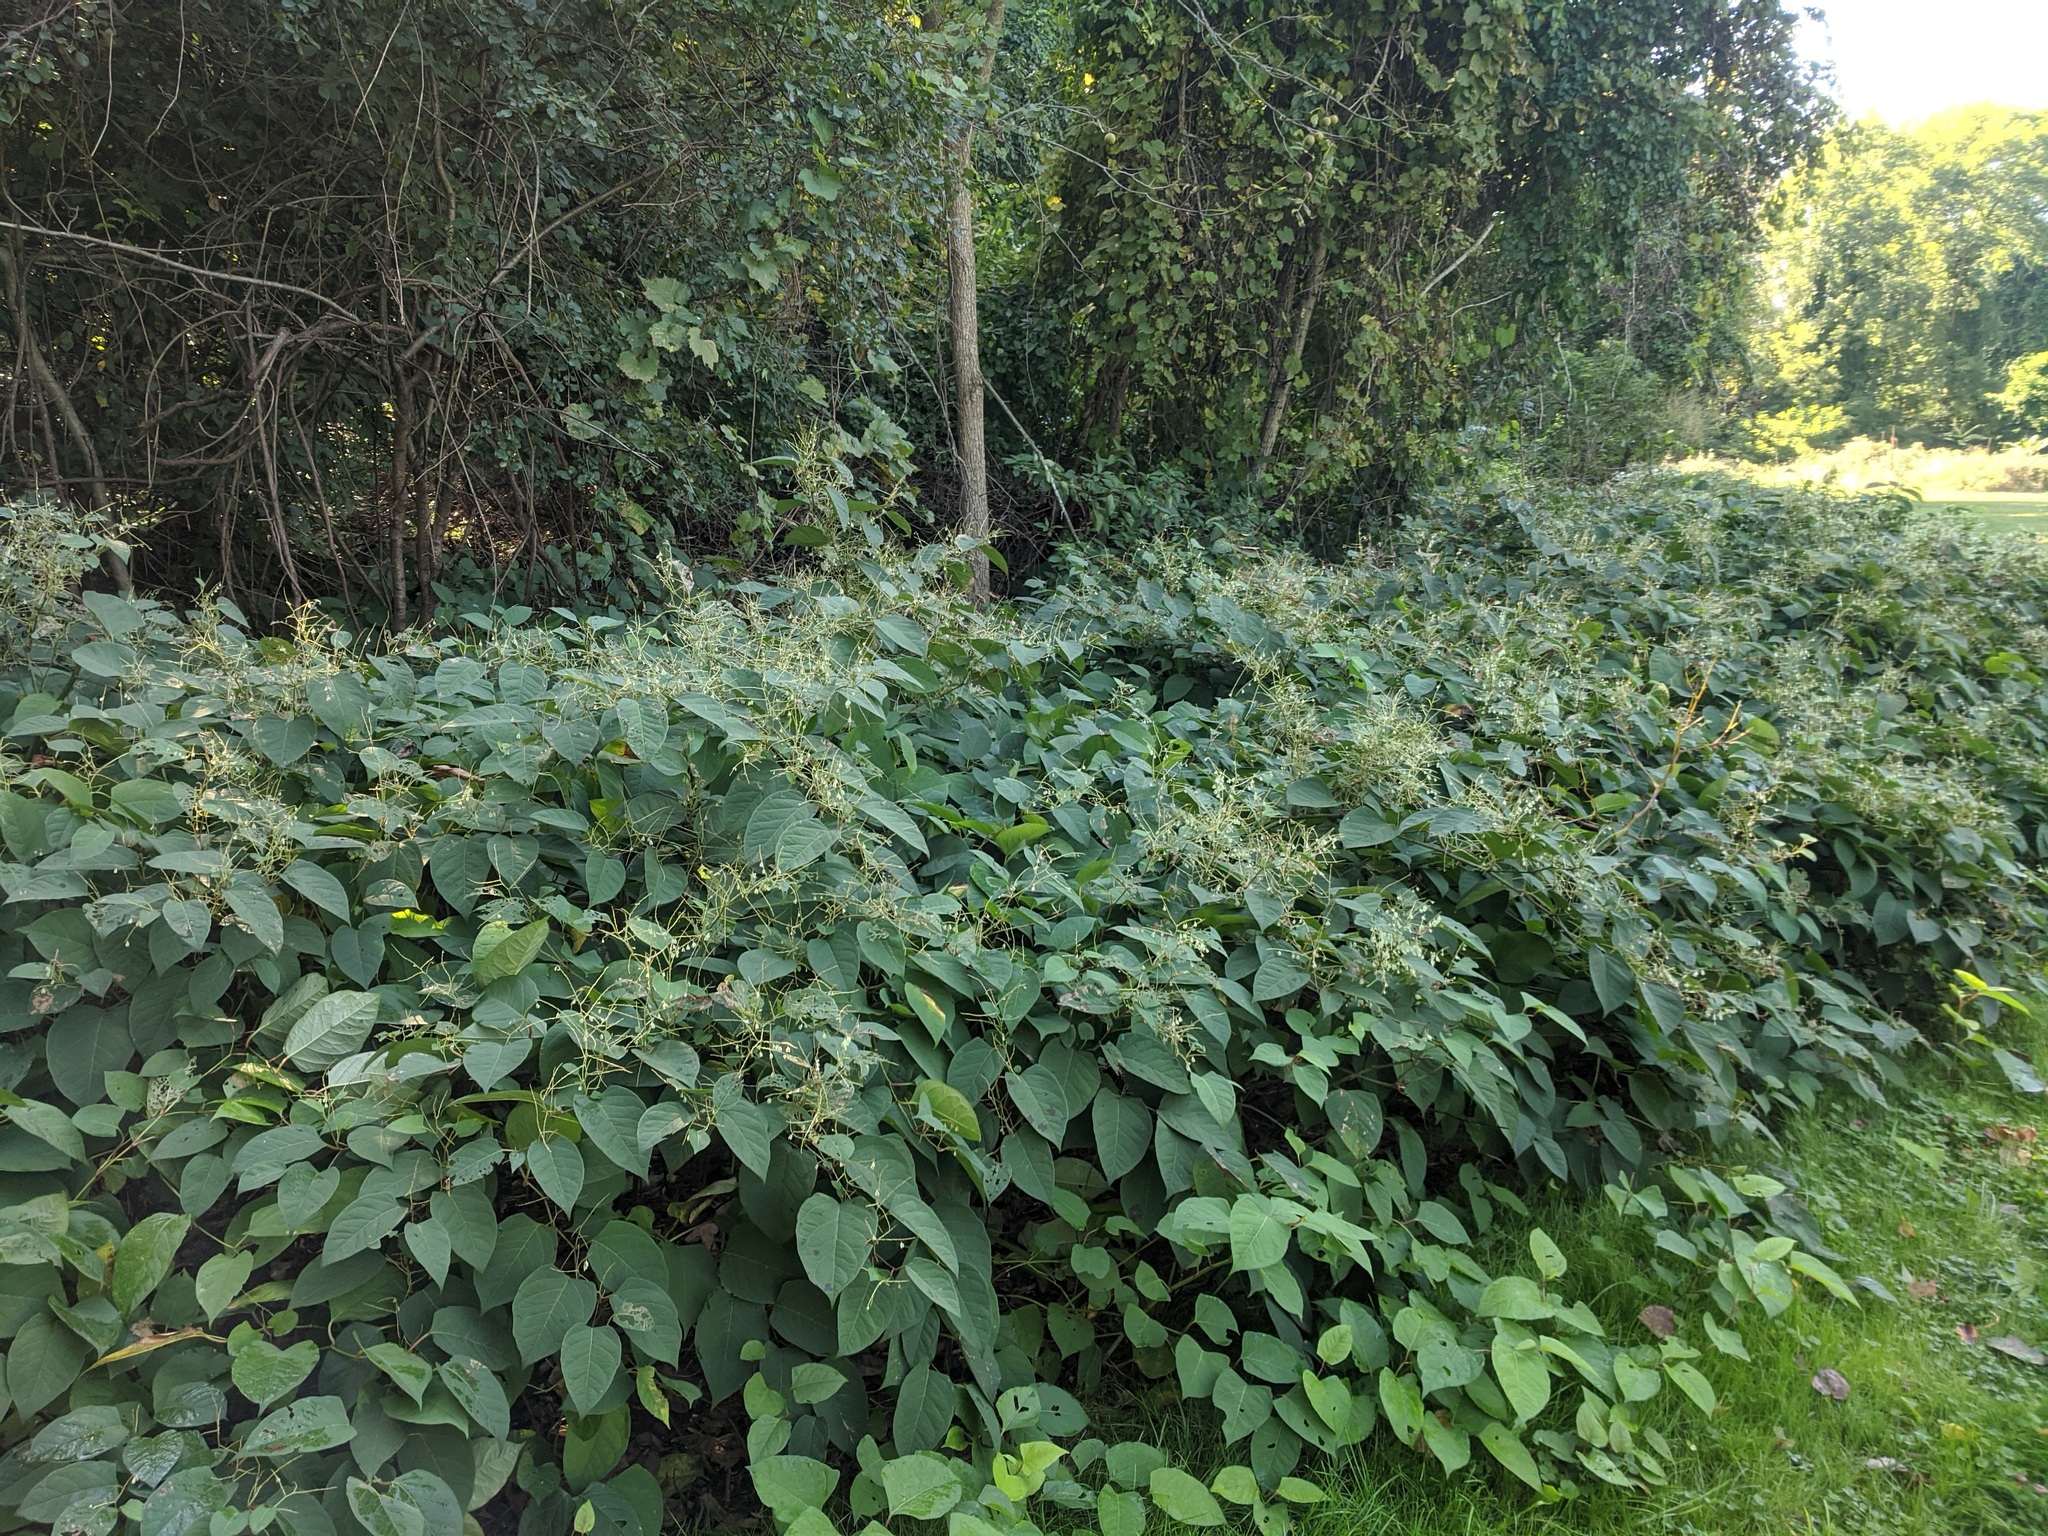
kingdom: Plantae
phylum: Tracheophyta
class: Magnoliopsida
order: Caryophyllales
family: Polygonaceae
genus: Reynoutria
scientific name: Reynoutria japonica
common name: Japanese knotweed
